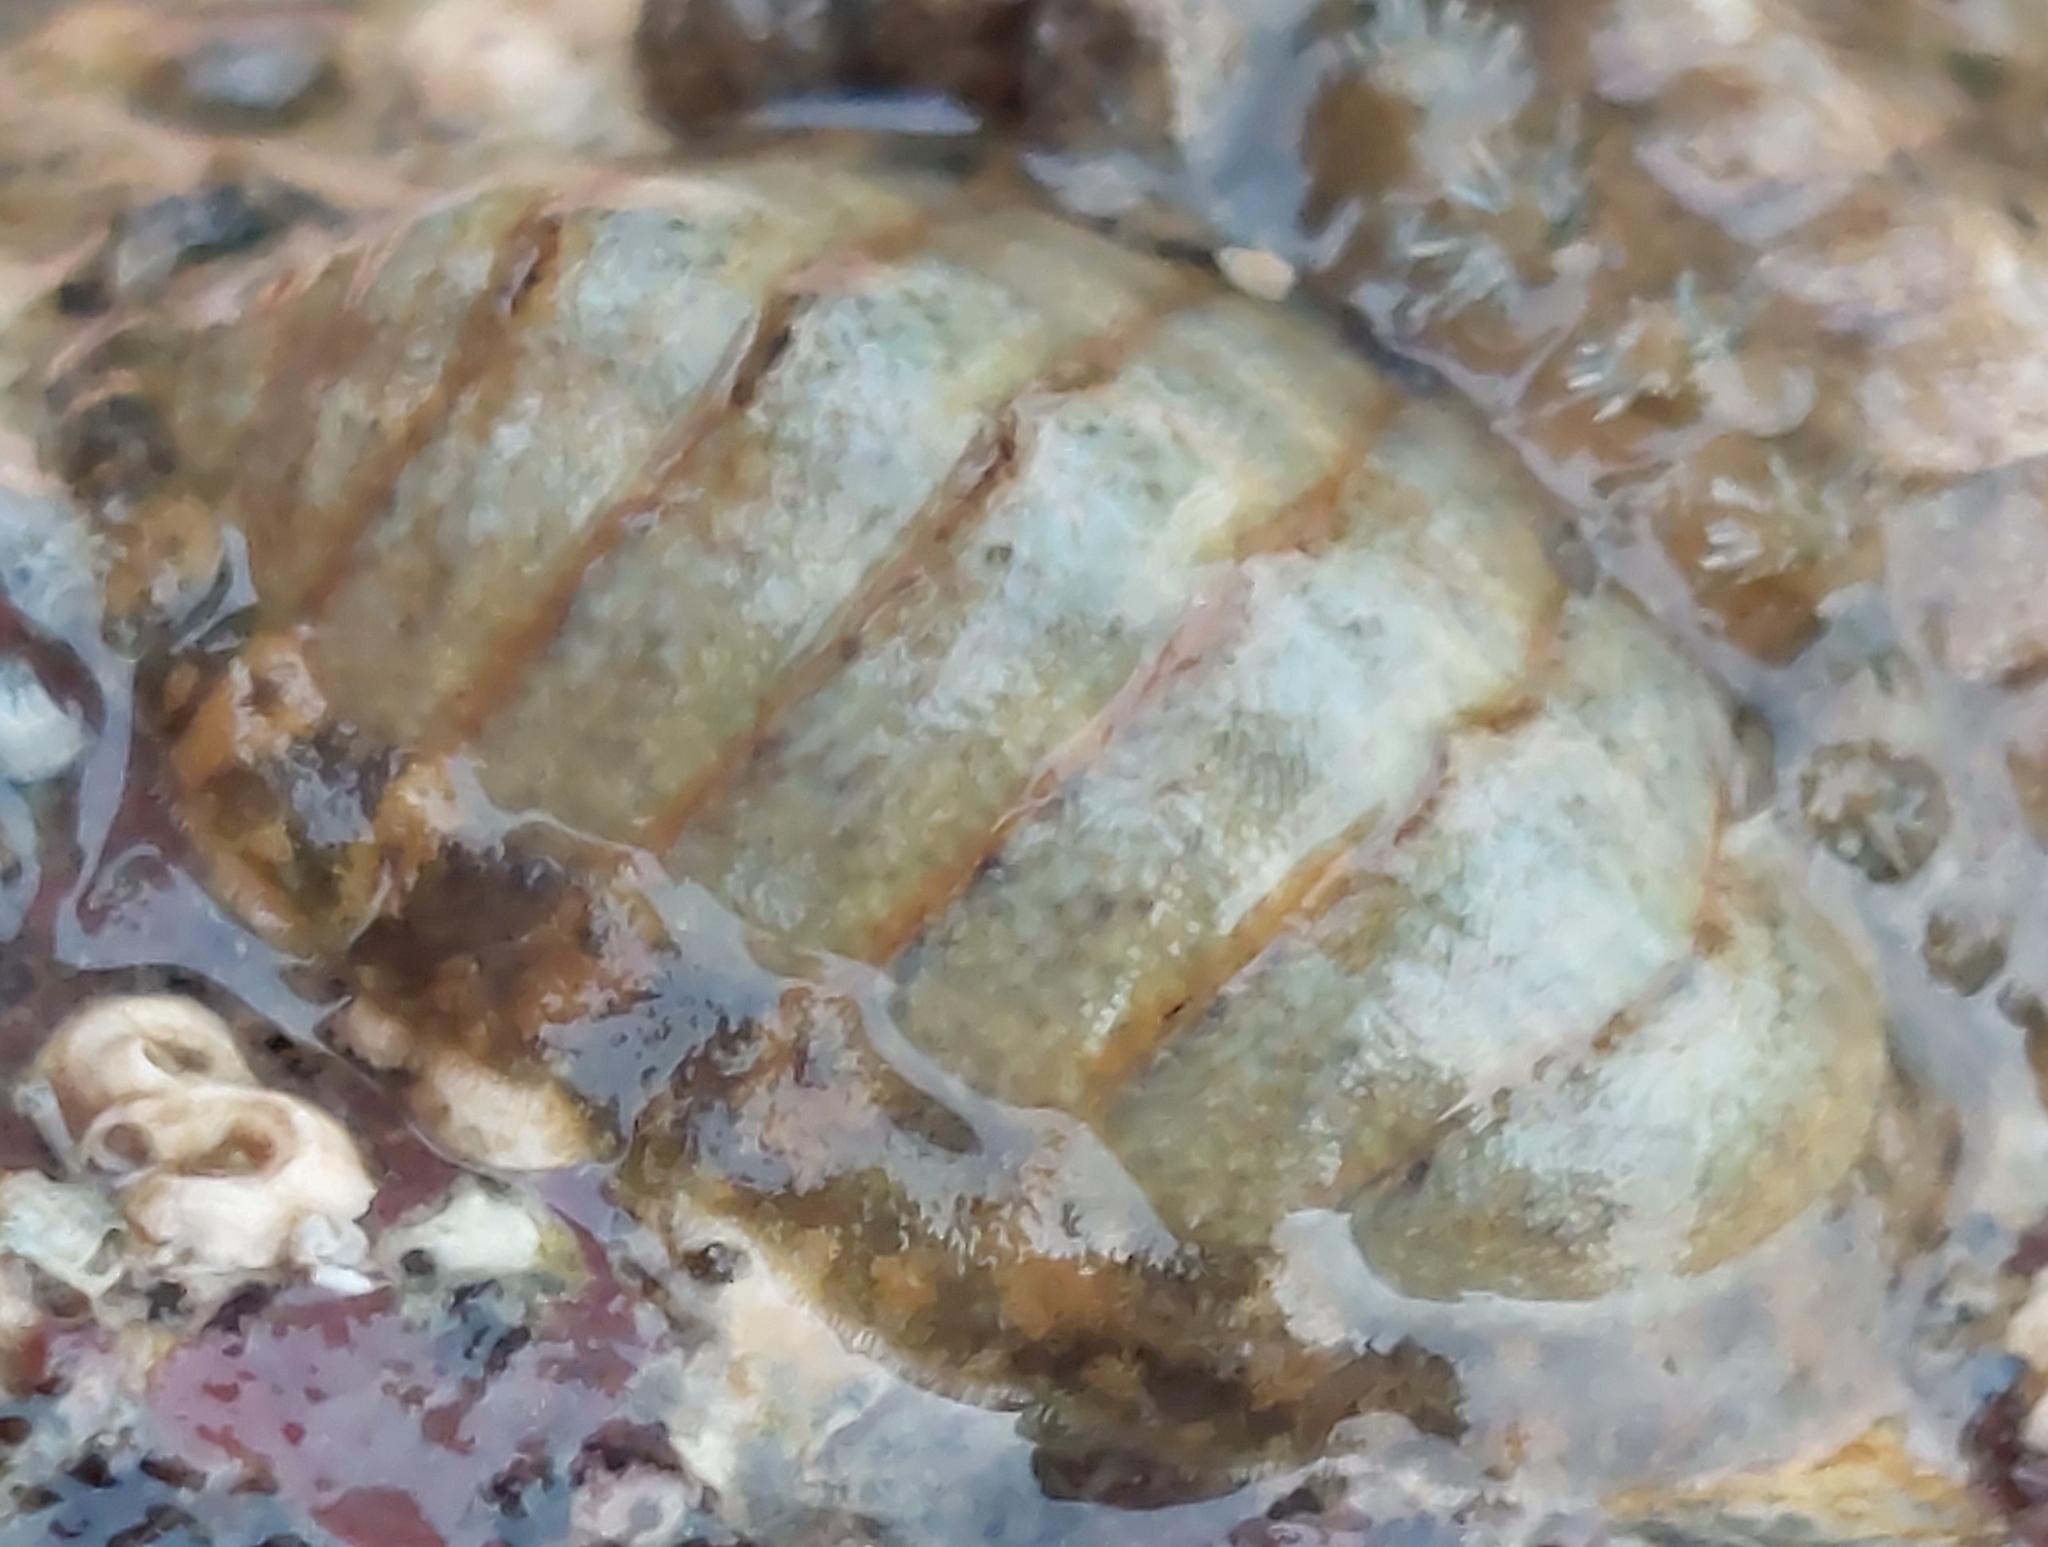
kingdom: Animalia
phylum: Mollusca
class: Polyplacophora
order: Chitonida
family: Tonicellidae
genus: Lepidochitona
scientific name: Lepidochitona cinerea
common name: Cinereous chiton
